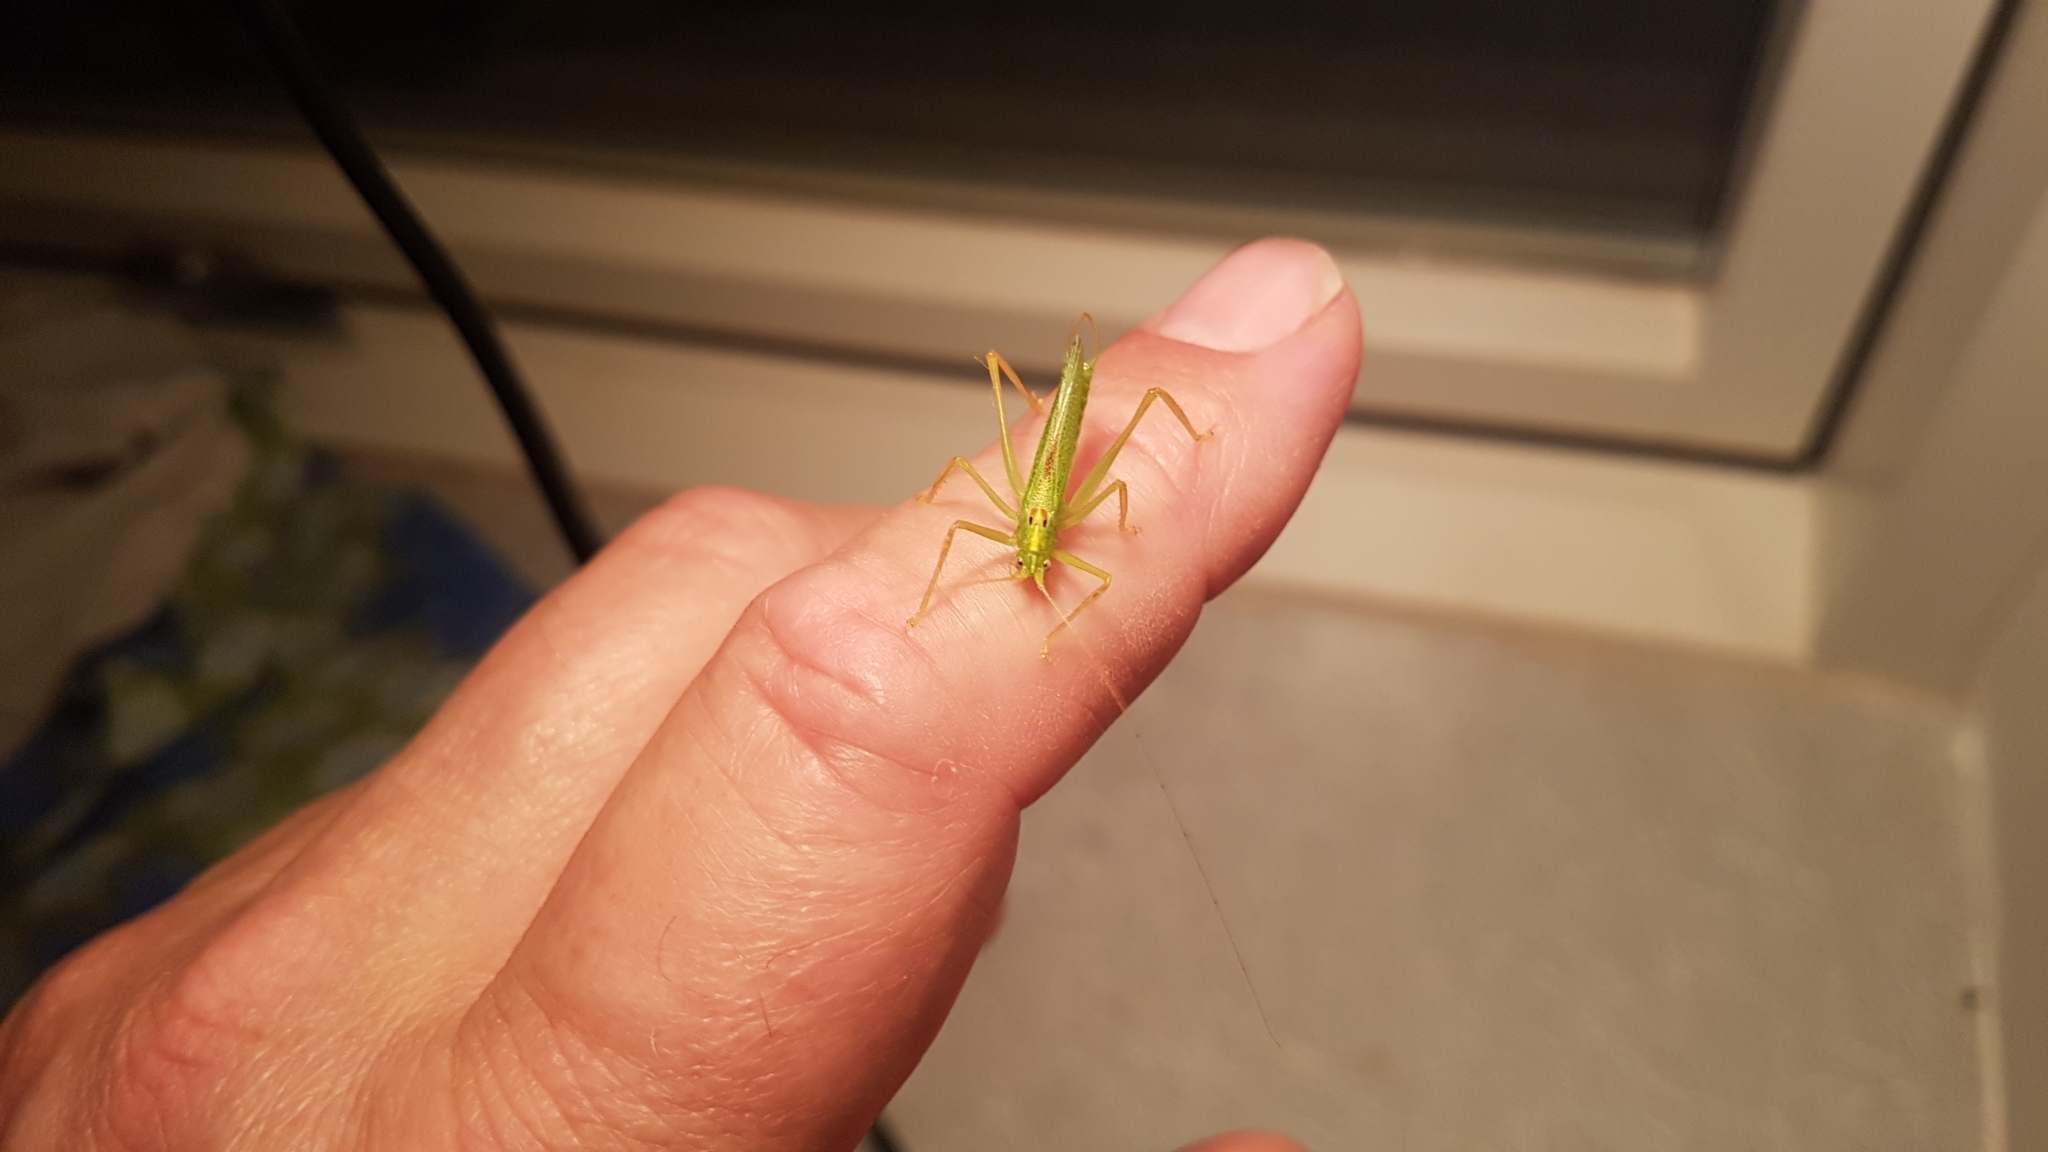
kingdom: Animalia
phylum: Arthropoda
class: Insecta
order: Orthoptera
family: Tettigoniidae
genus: Meconema
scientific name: Meconema thalassinum
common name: Oak bush-cricket
